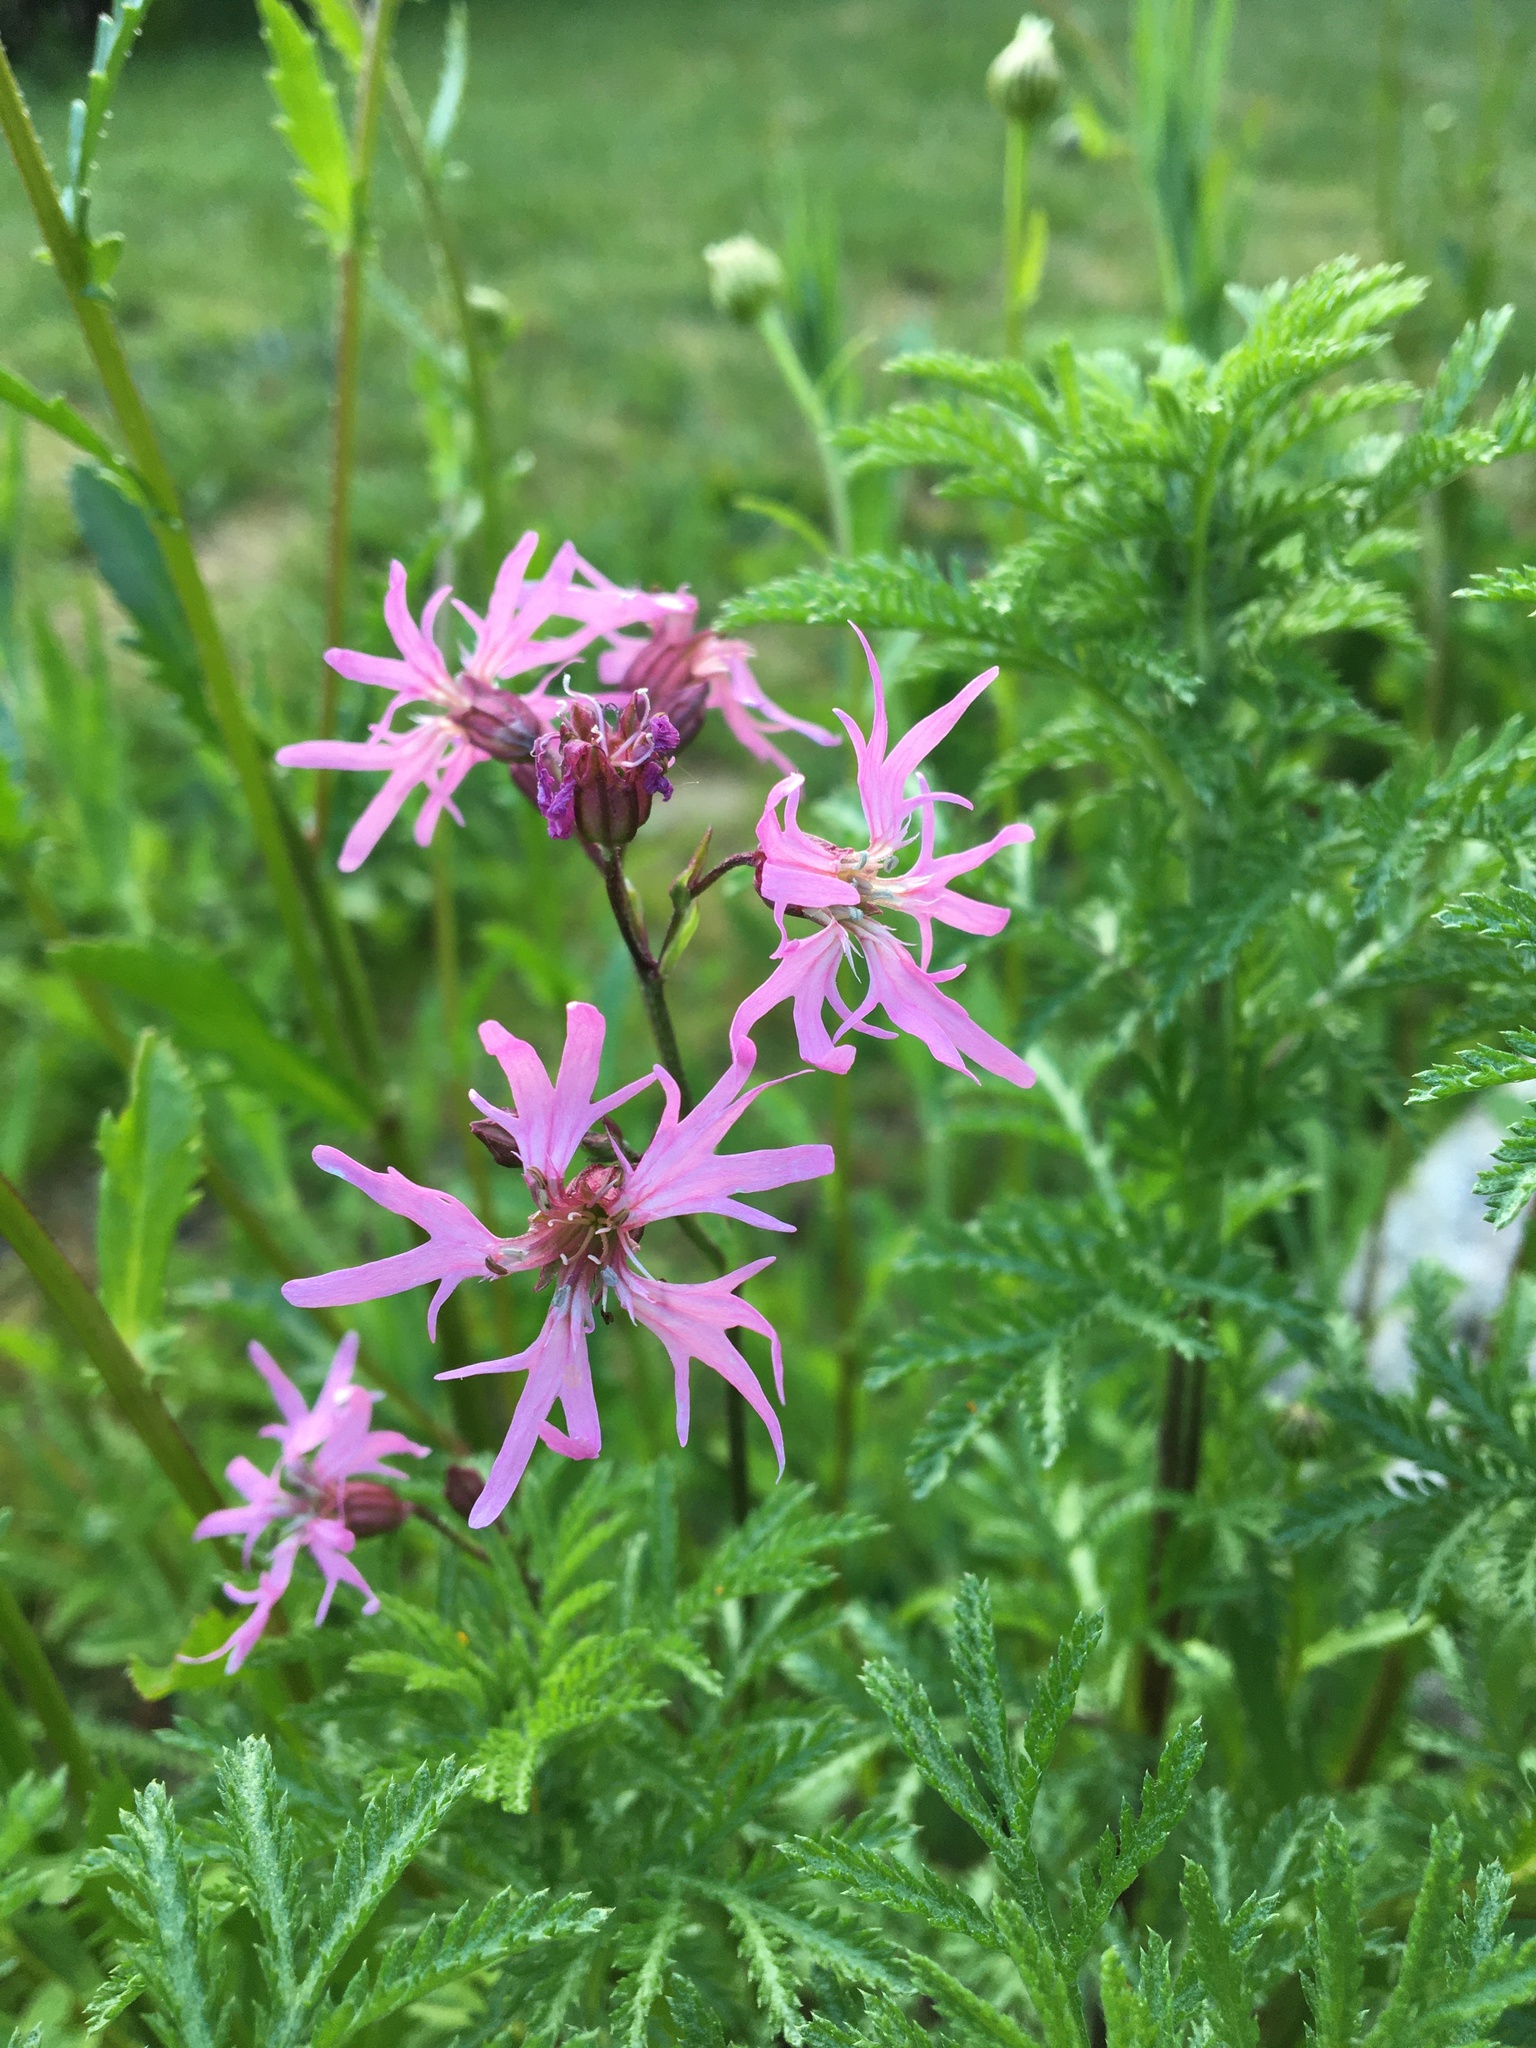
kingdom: Plantae
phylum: Tracheophyta
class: Magnoliopsida
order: Caryophyllales
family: Caryophyllaceae
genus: Silene
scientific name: Silene flos-cuculi
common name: Ragged-robin
